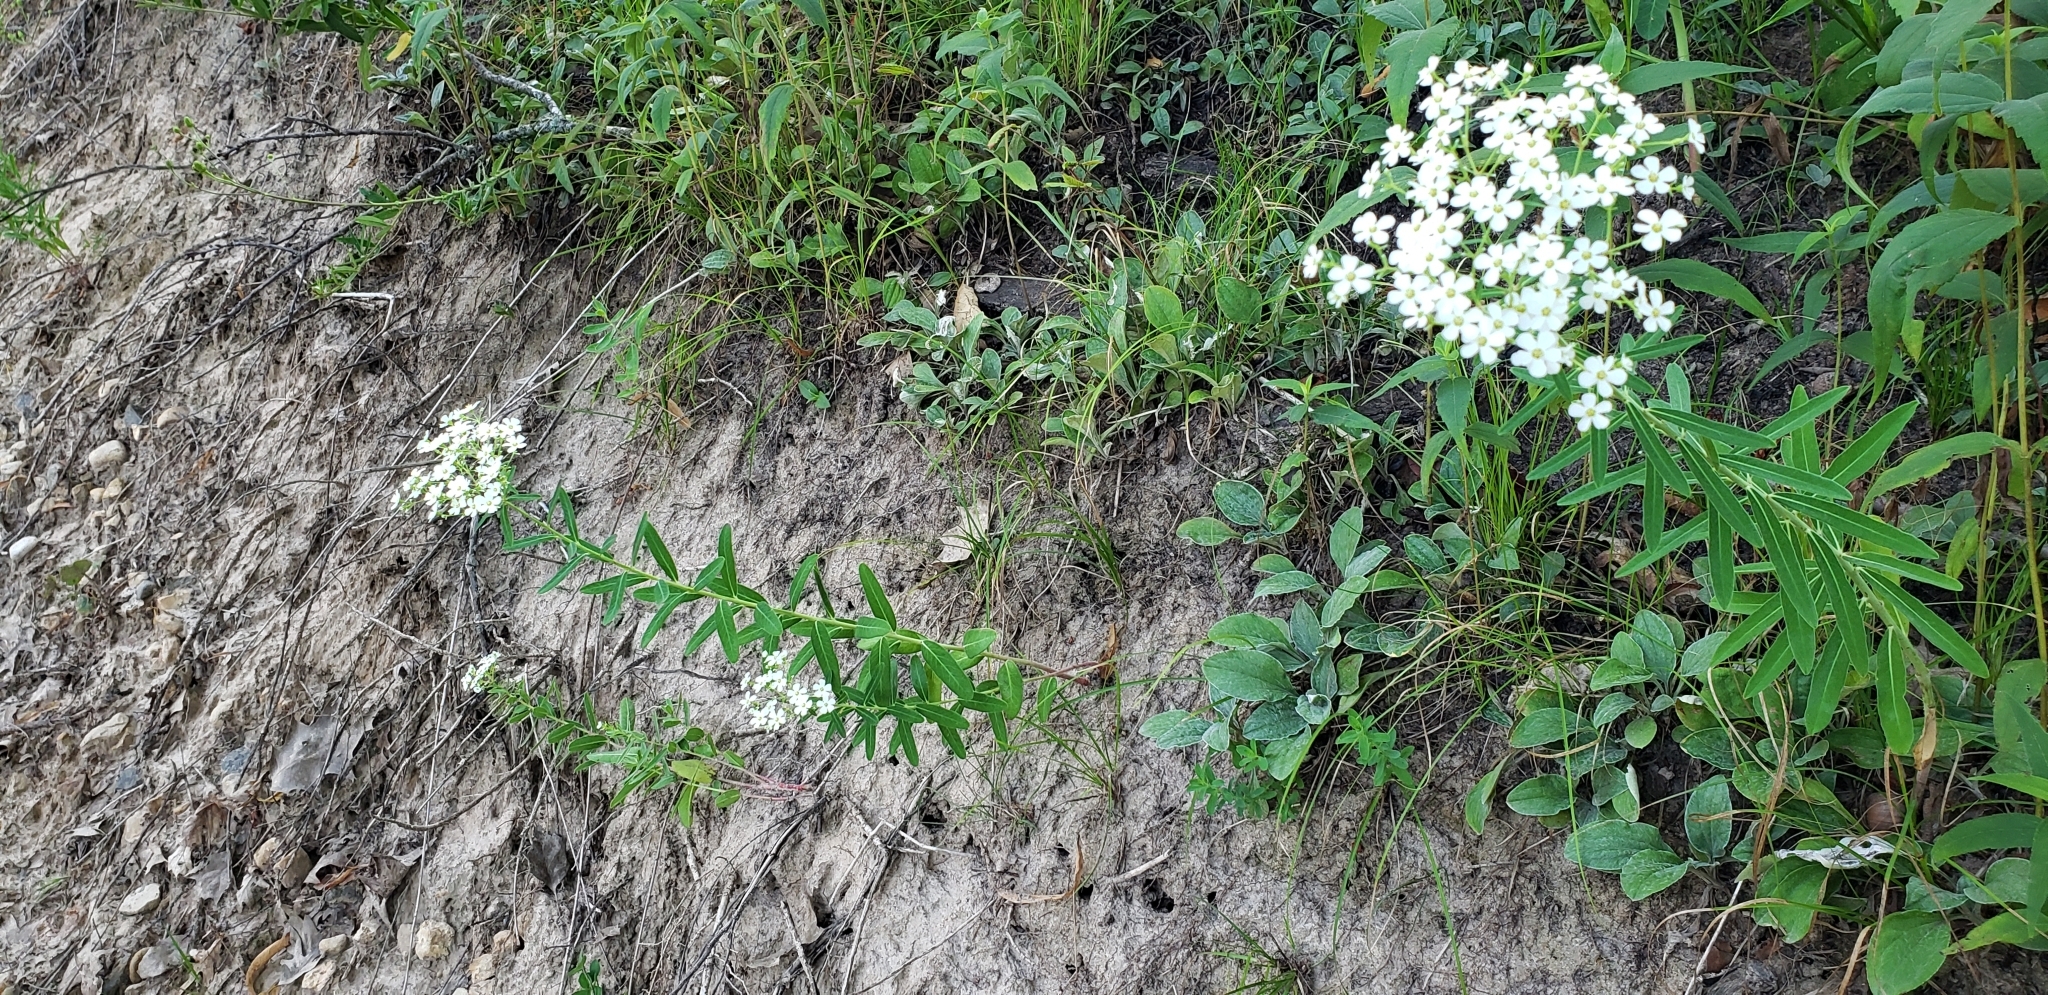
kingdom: Plantae
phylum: Tracheophyta
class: Magnoliopsida
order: Malpighiales
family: Euphorbiaceae
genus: Euphorbia
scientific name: Euphorbia corollata
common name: Flowering spurge
